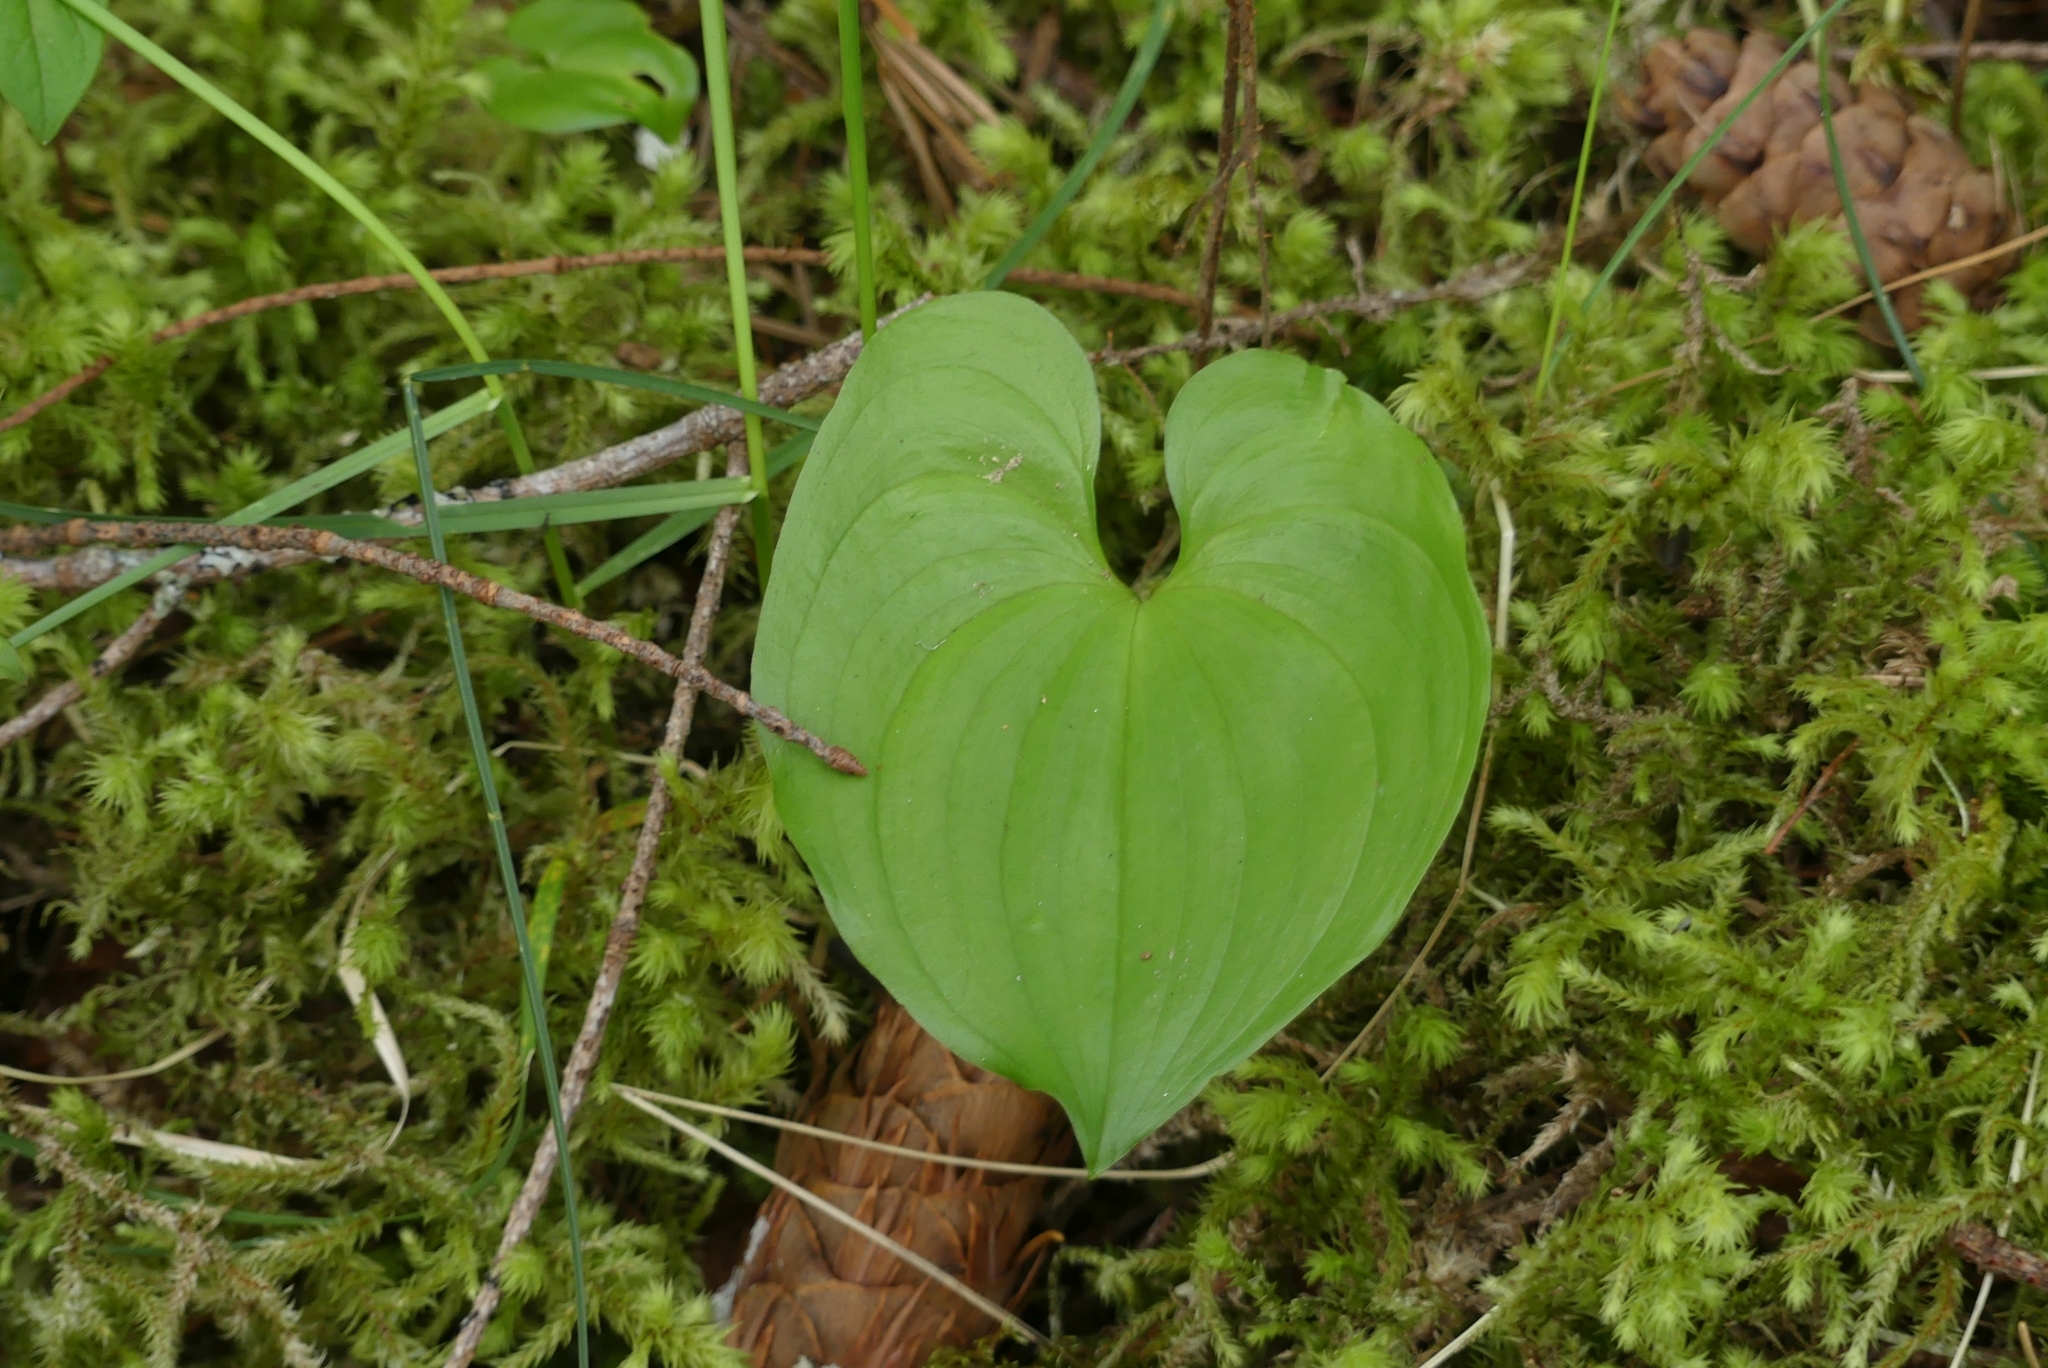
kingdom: Plantae
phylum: Tracheophyta
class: Liliopsida
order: Asparagales
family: Asparagaceae
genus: Maianthemum
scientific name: Maianthemum dilatatum
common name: False lily-of-the-valley
